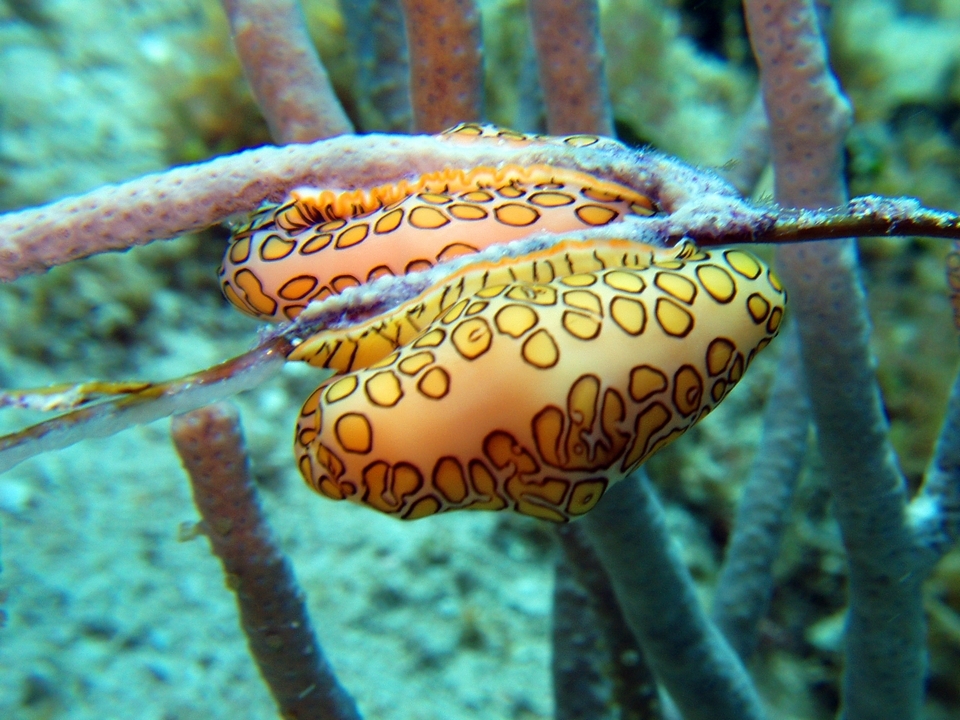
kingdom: Animalia
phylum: Mollusca
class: Gastropoda
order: Littorinimorpha
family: Ovulidae
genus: Cyphoma
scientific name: Cyphoma gibbosum
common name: Flamingo tongue
